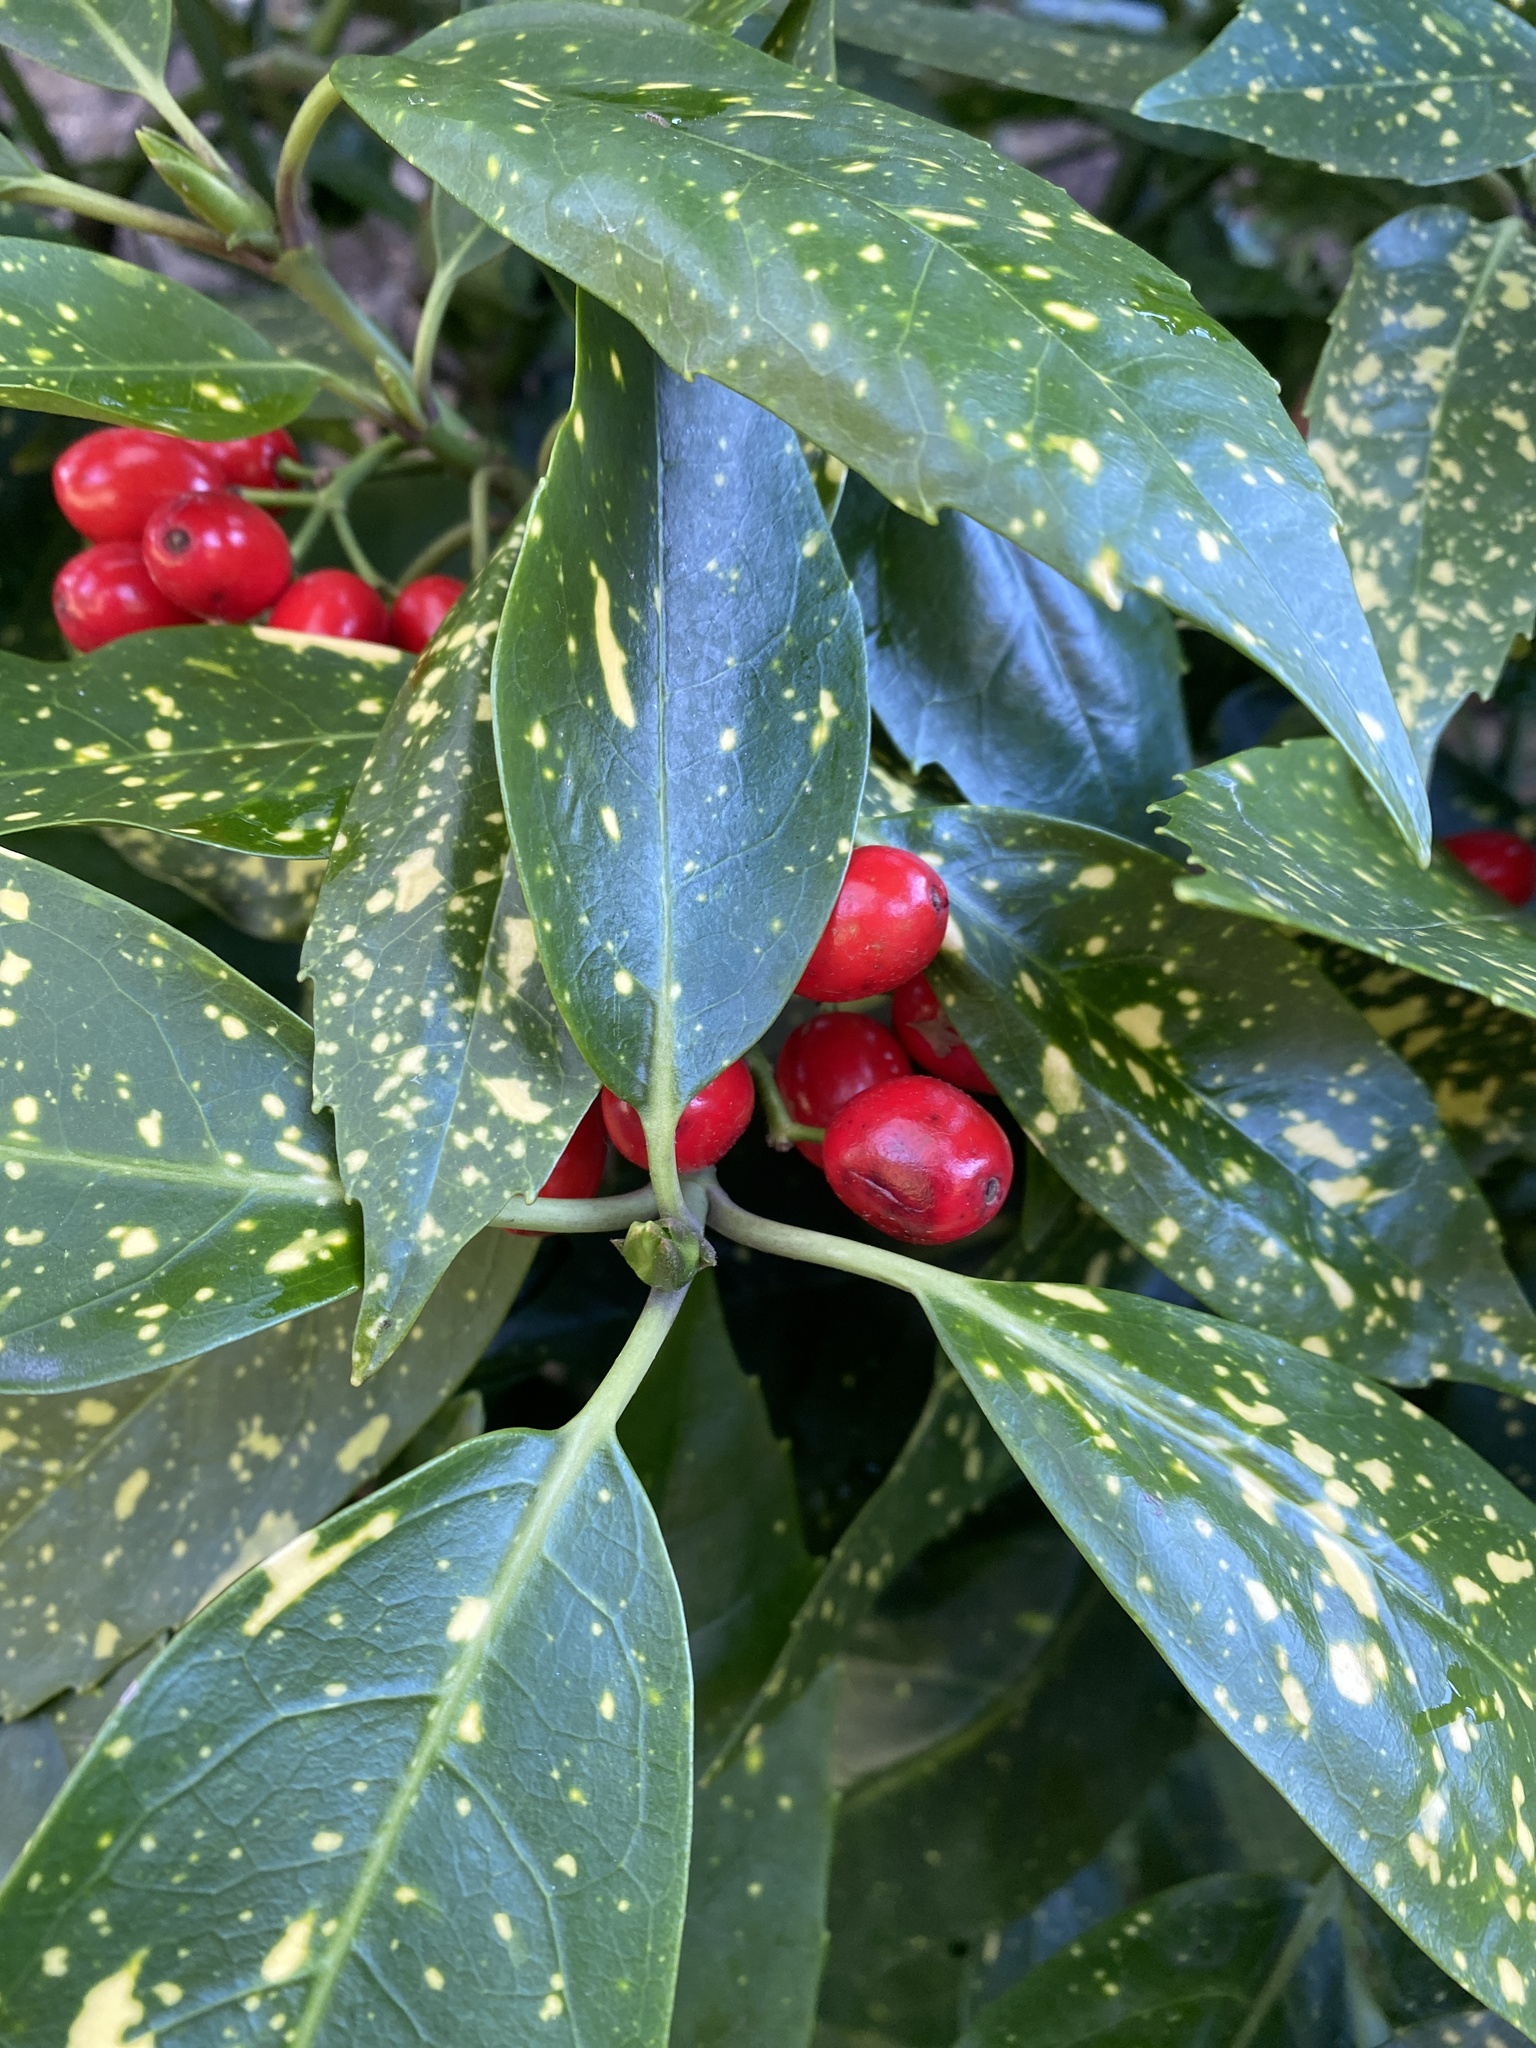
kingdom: Plantae
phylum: Tracheophyta
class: Magnoliopsida
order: Garryales
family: Garryaceae
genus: Aucuba
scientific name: Aucuba japonica
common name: Spotted-laurel
